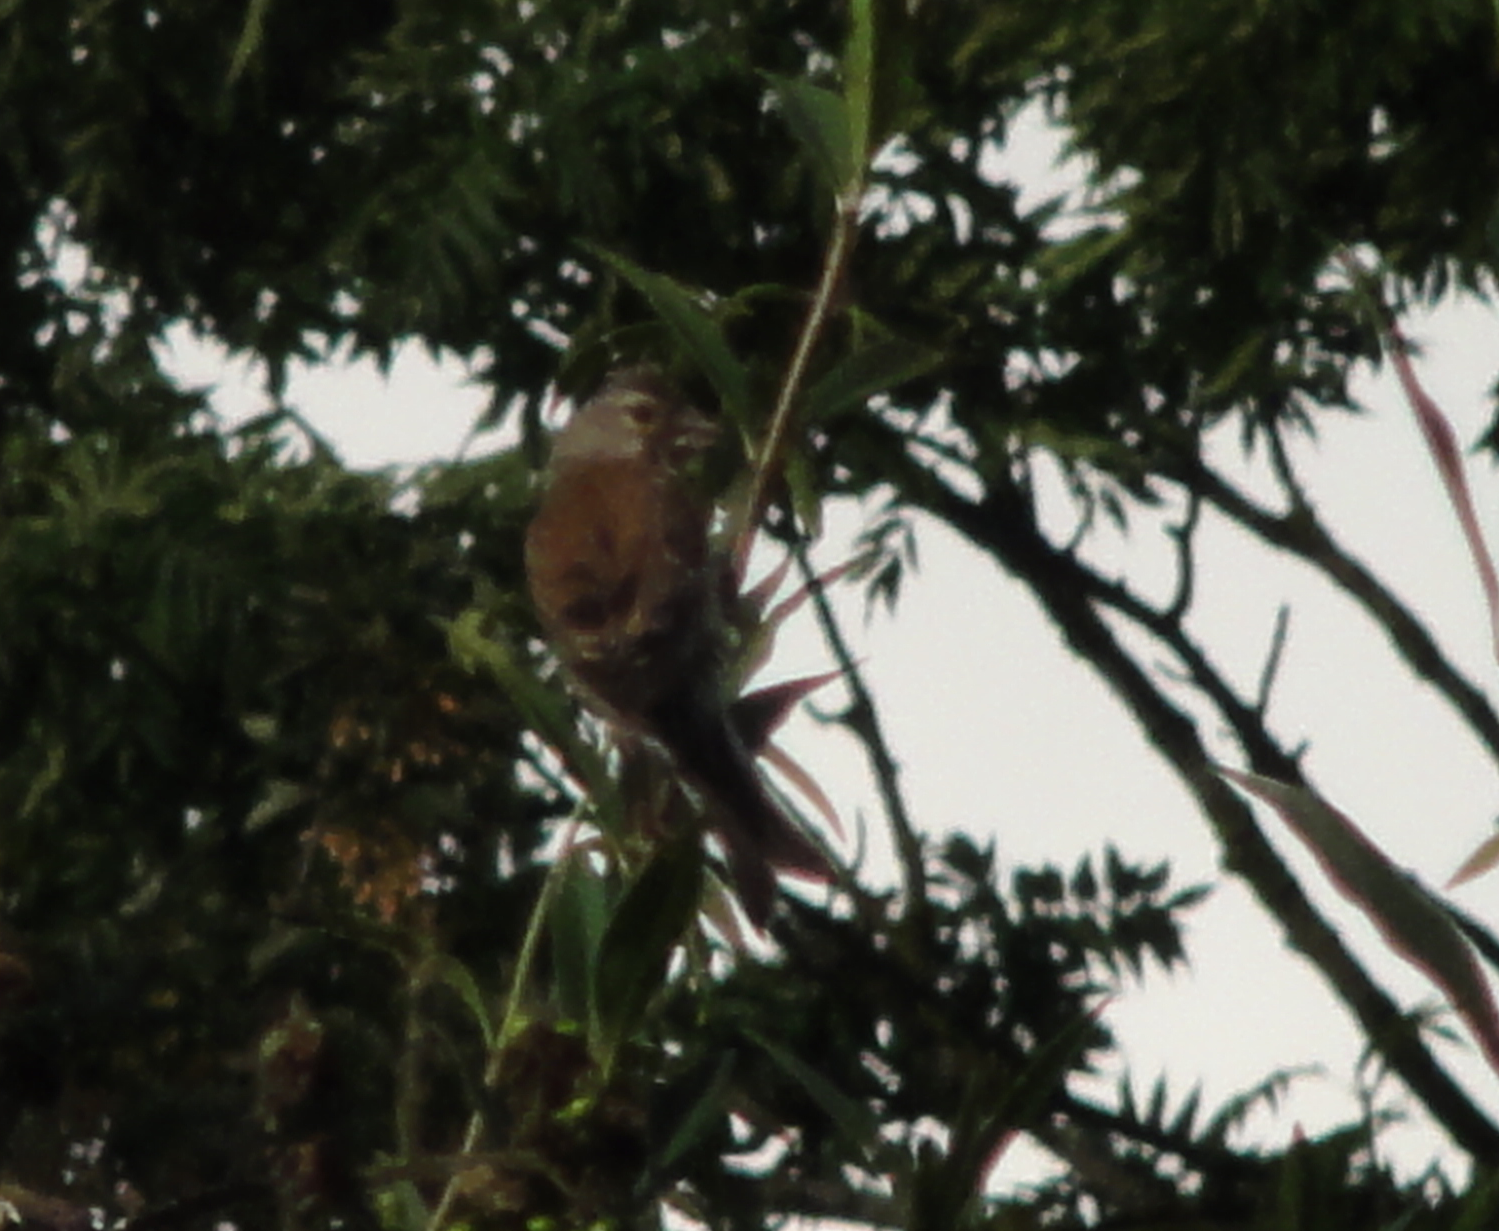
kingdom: Animalia
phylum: Chordata
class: Aves
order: Passeriformes
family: Fringillidae
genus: Linaria
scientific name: Linaria cannabina
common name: Common linnet
